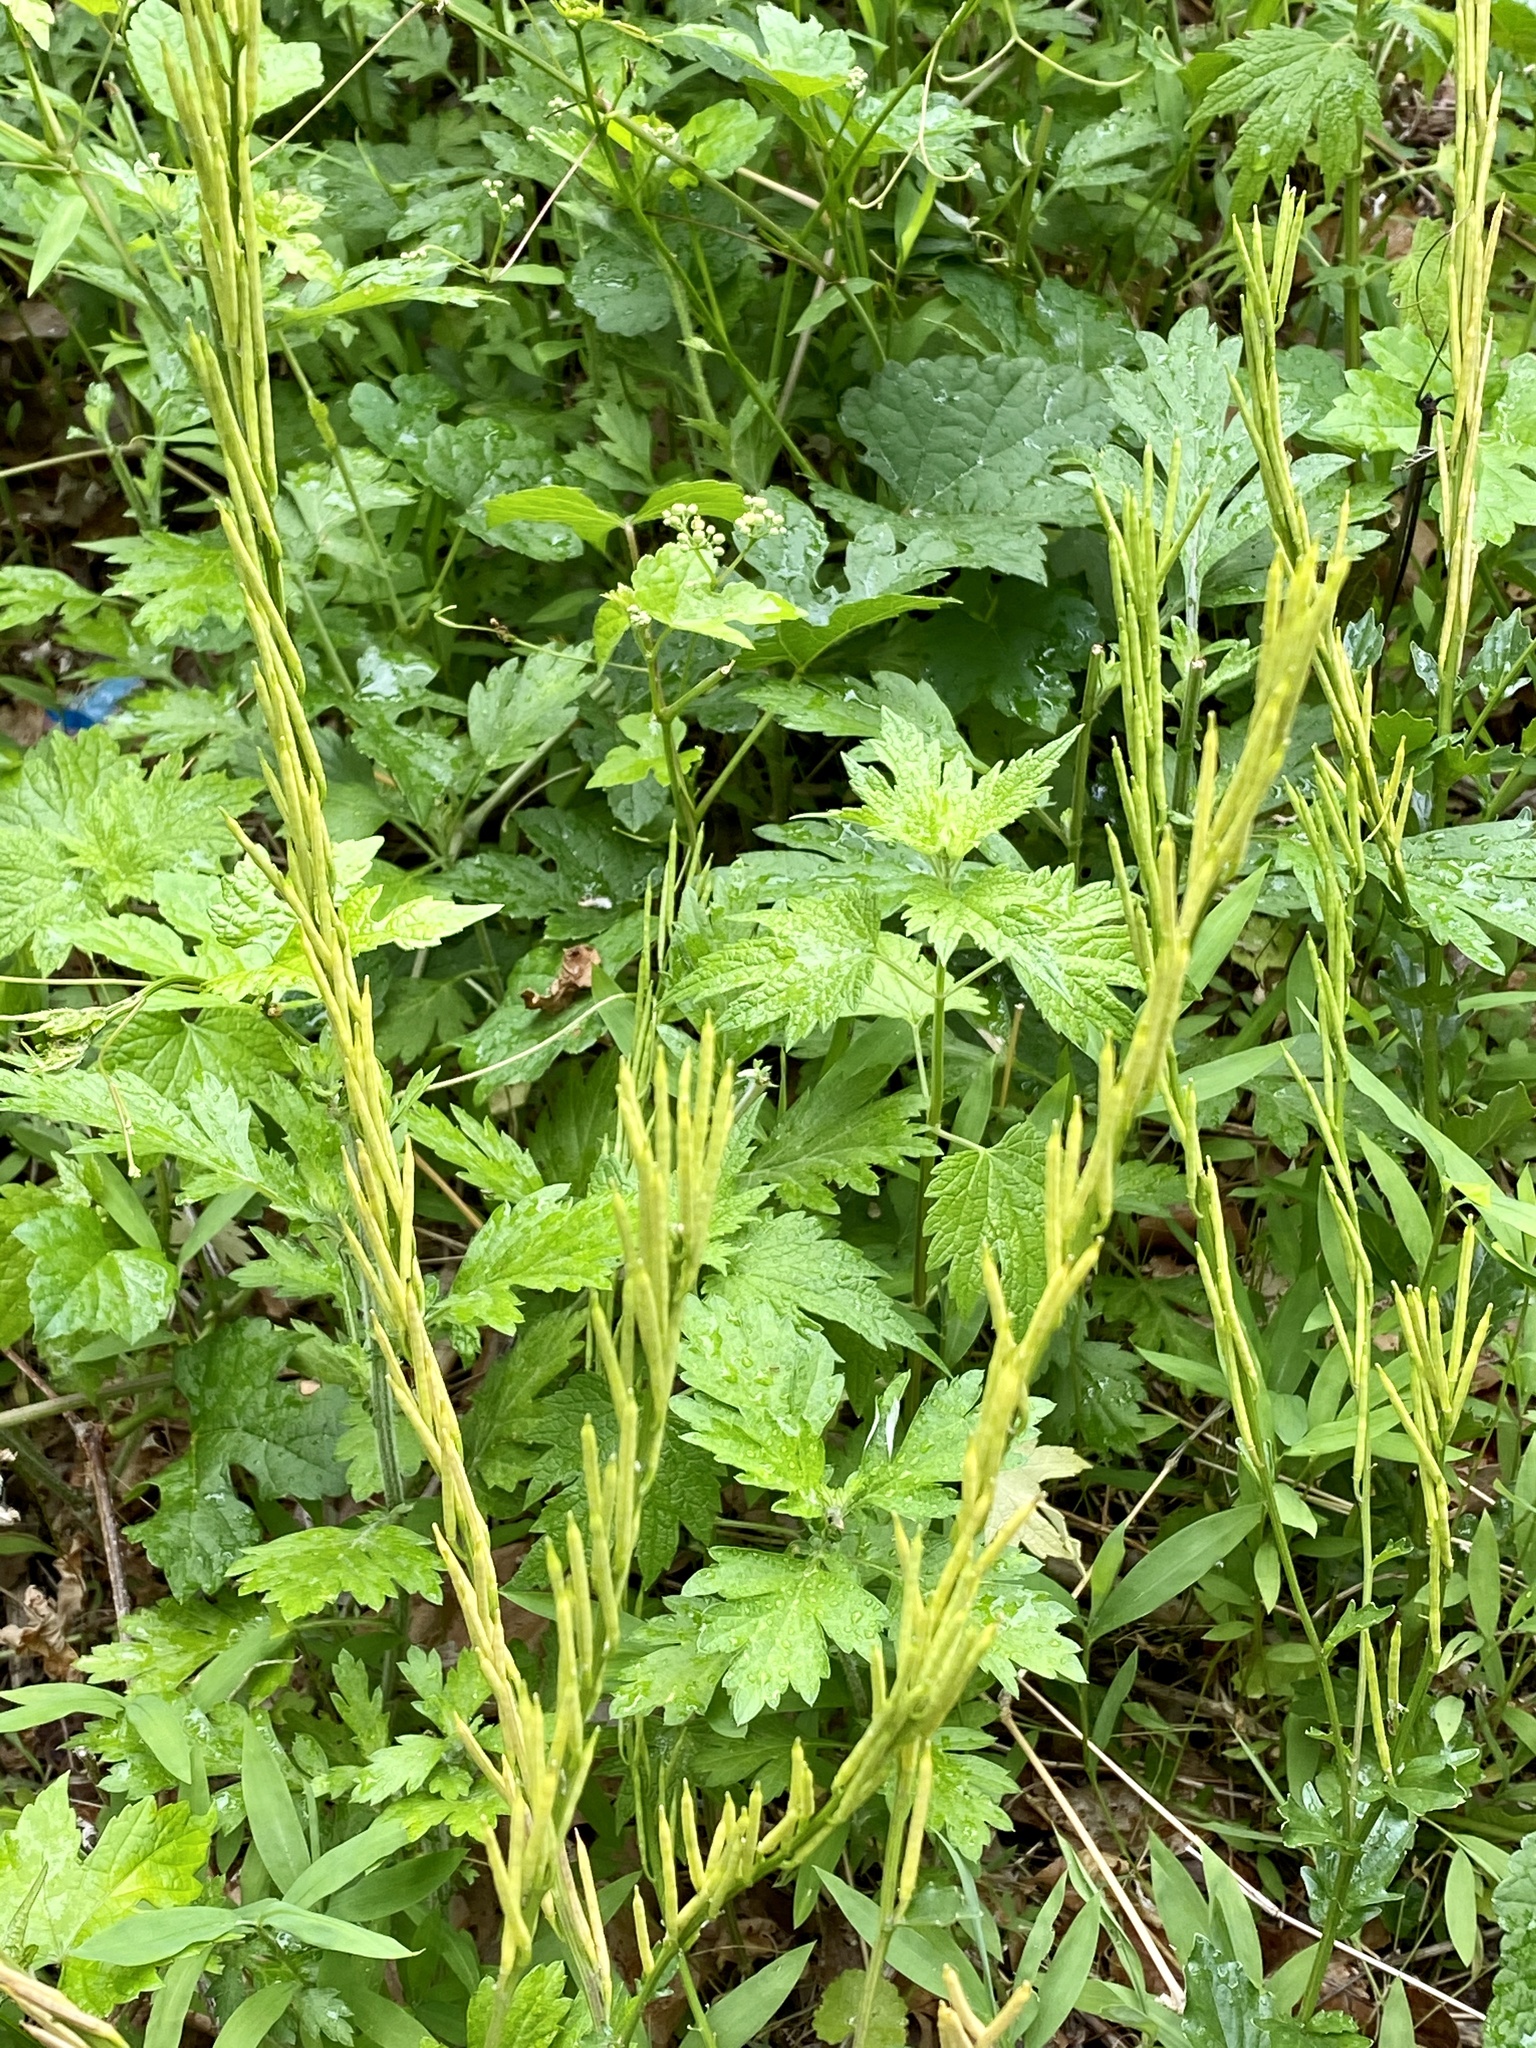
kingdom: Plantae
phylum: Tracheophyta
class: Magnoliopsida
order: Brassicales
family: Brassicaceae
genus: Barbarea
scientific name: Barbarea vulgaris
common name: Cressy-greens
